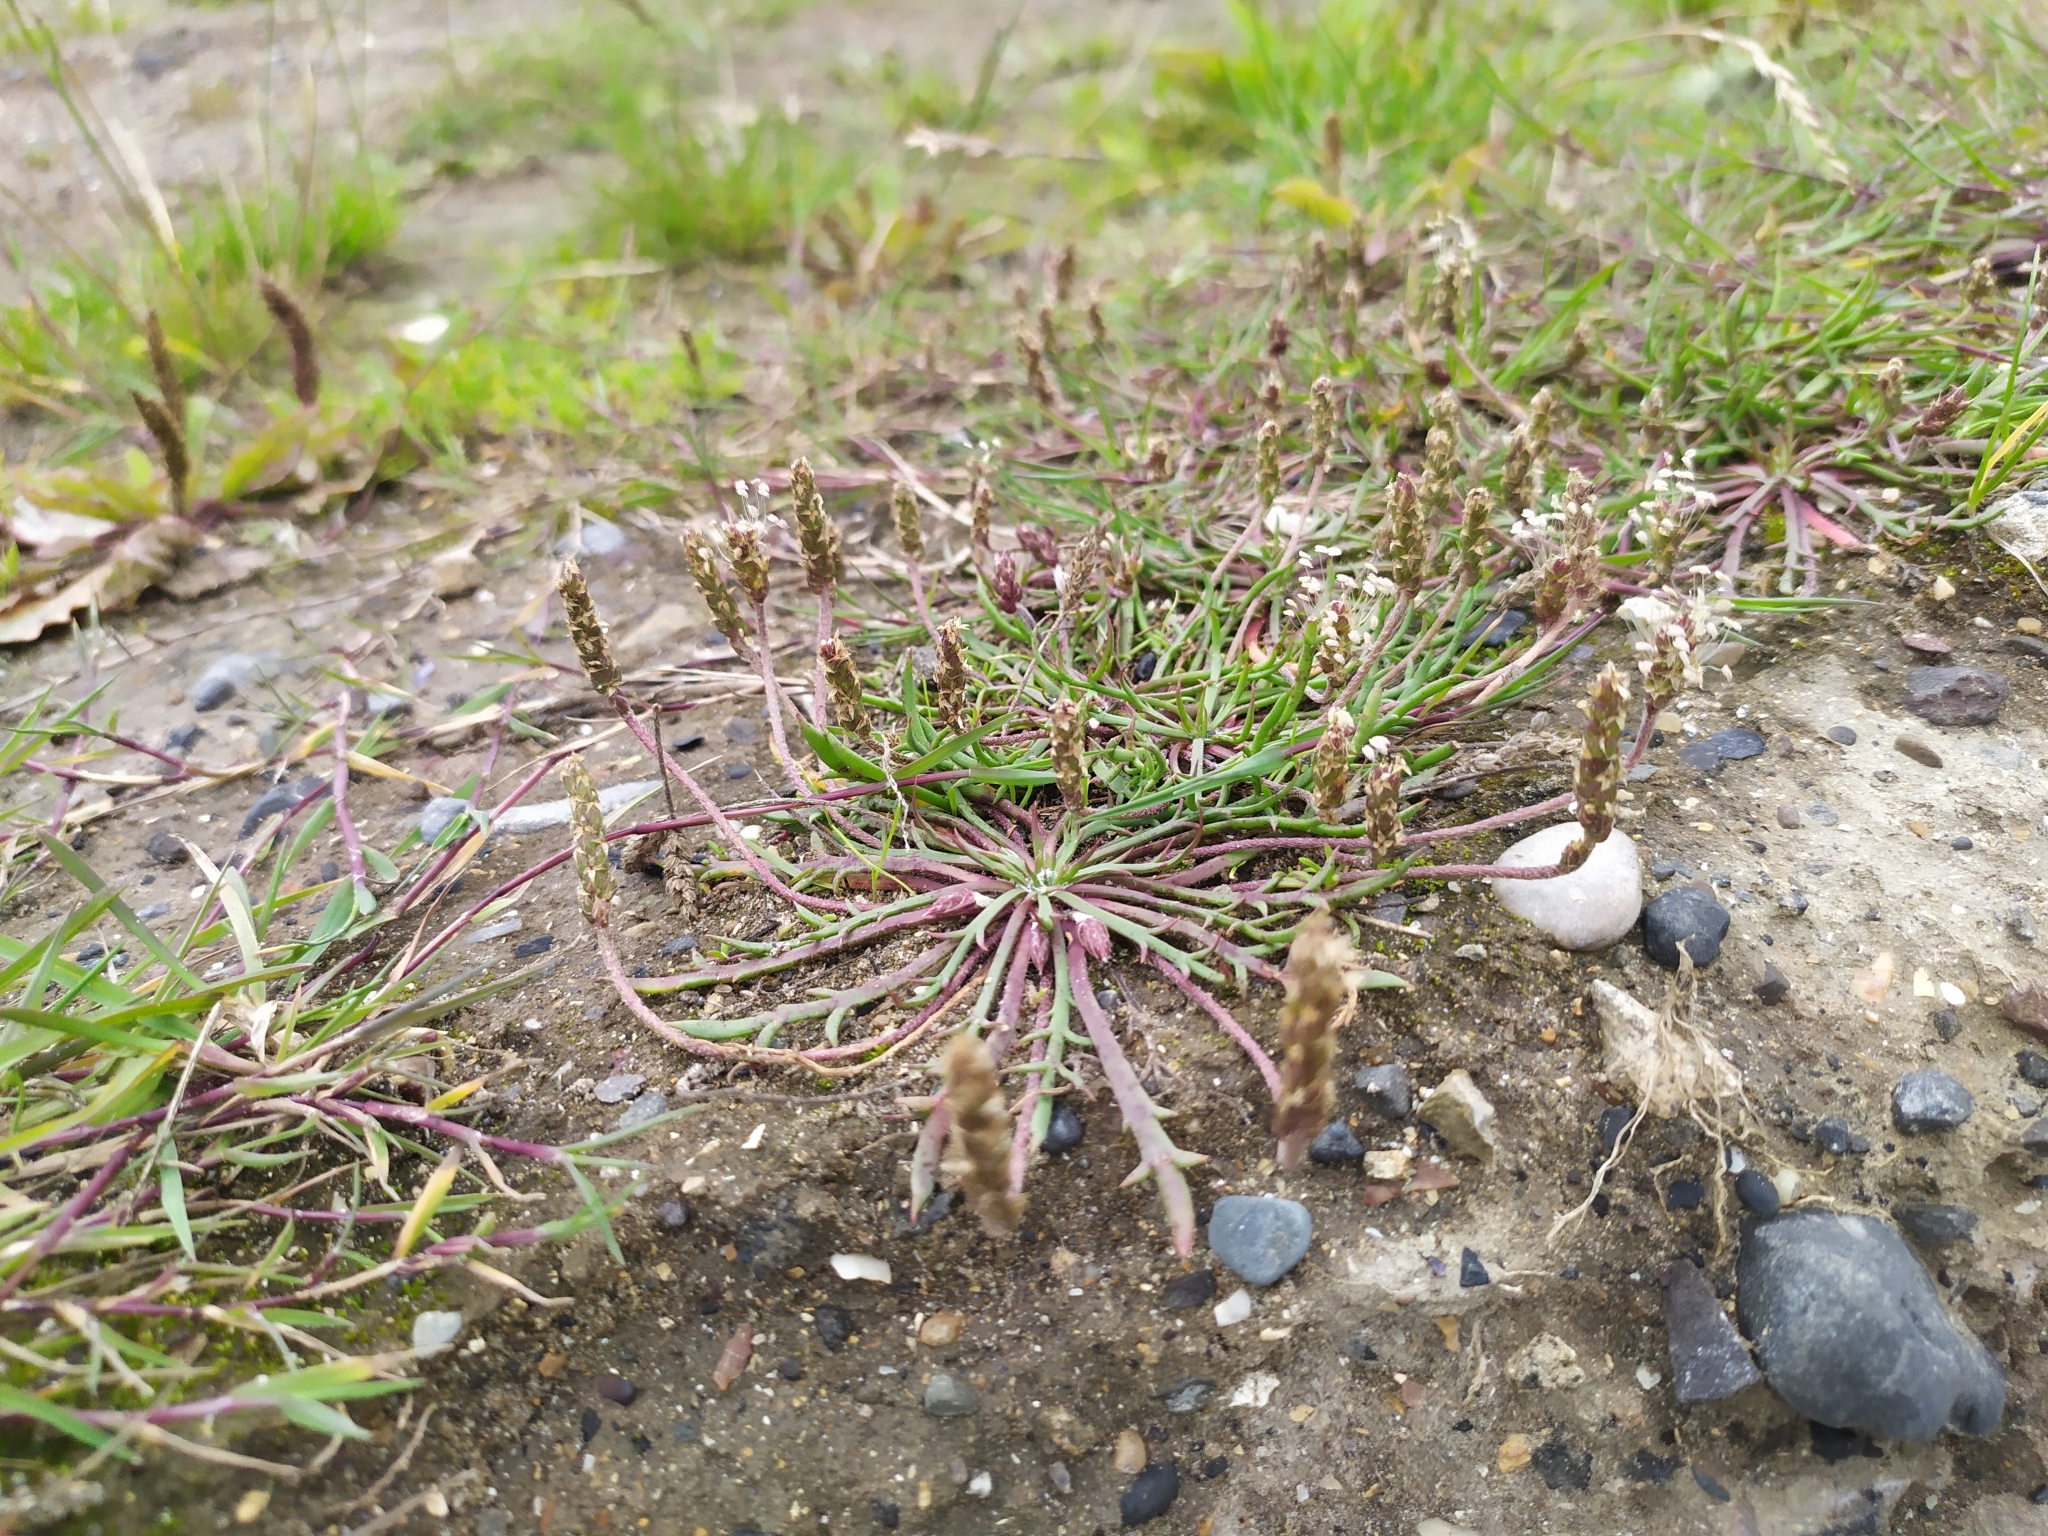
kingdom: Plantae
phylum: Tracheophyta
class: Magnoliopsida
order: Lamiales
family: Plantaginaceae
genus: Plantago
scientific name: Plantago coronopus
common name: Buck's-horn plantain
